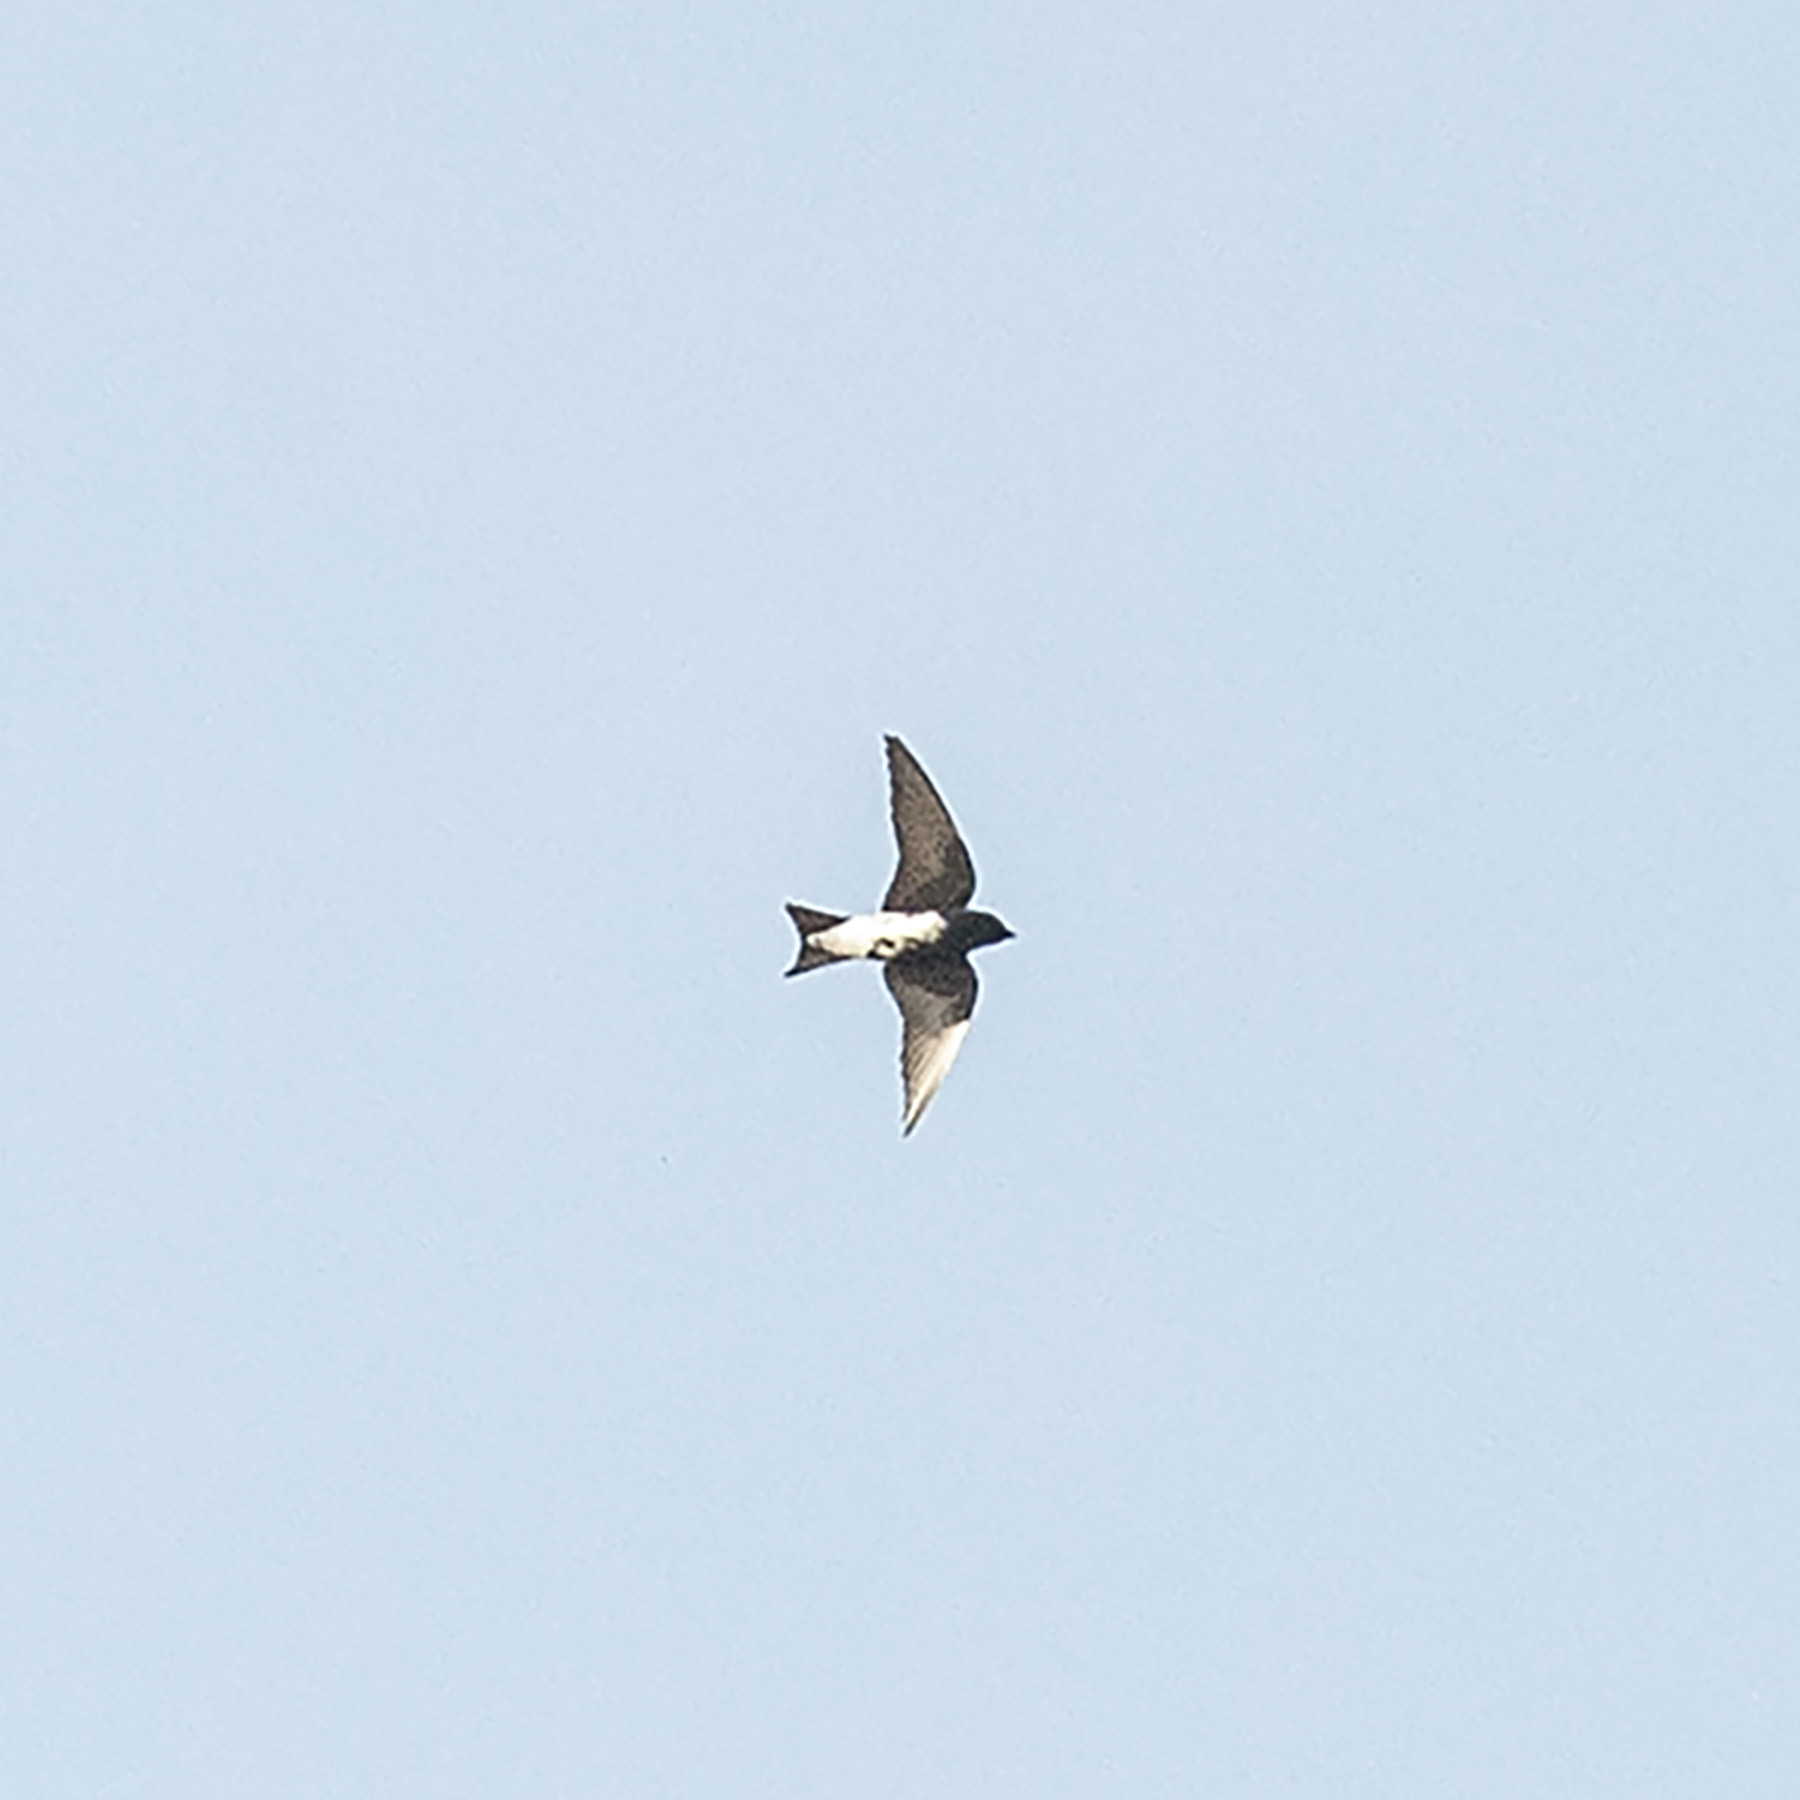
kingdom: Animalia
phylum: Chordata
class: Aves
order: Passeriformes
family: Hirundinidae
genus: Progne
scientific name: Progne dominicensis
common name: Caribbean martin
